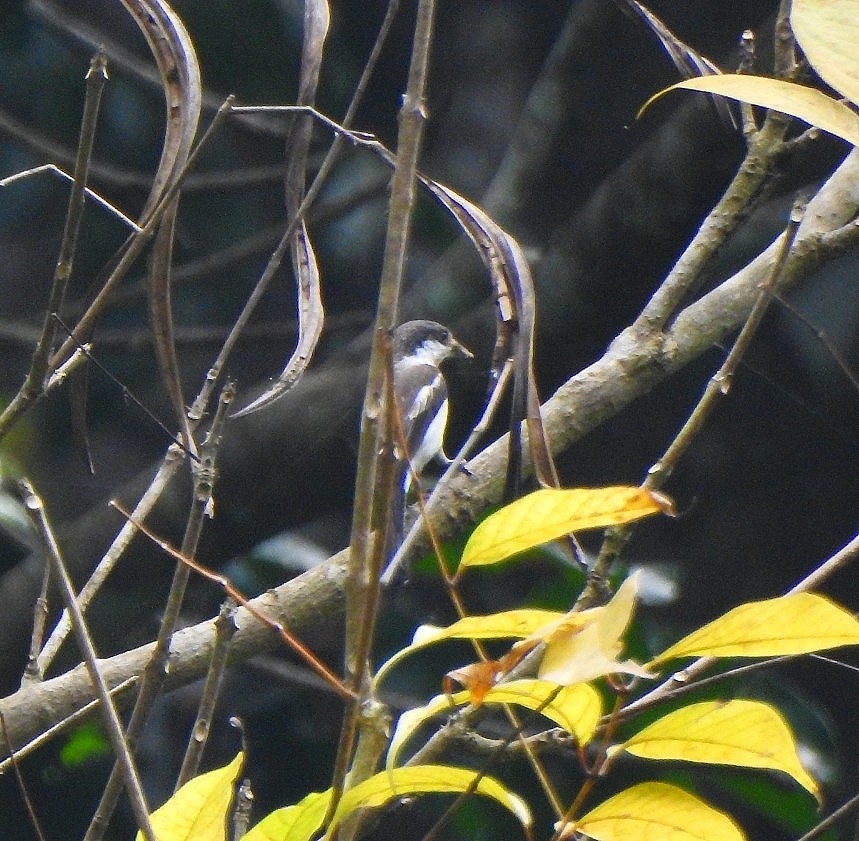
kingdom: Animalia
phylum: Chordata
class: Aves
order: Passeriformes
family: Tephrodornithidae
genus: Hemipus
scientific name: Hemipus picatus
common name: Bar-winged flycatcher-shrike
